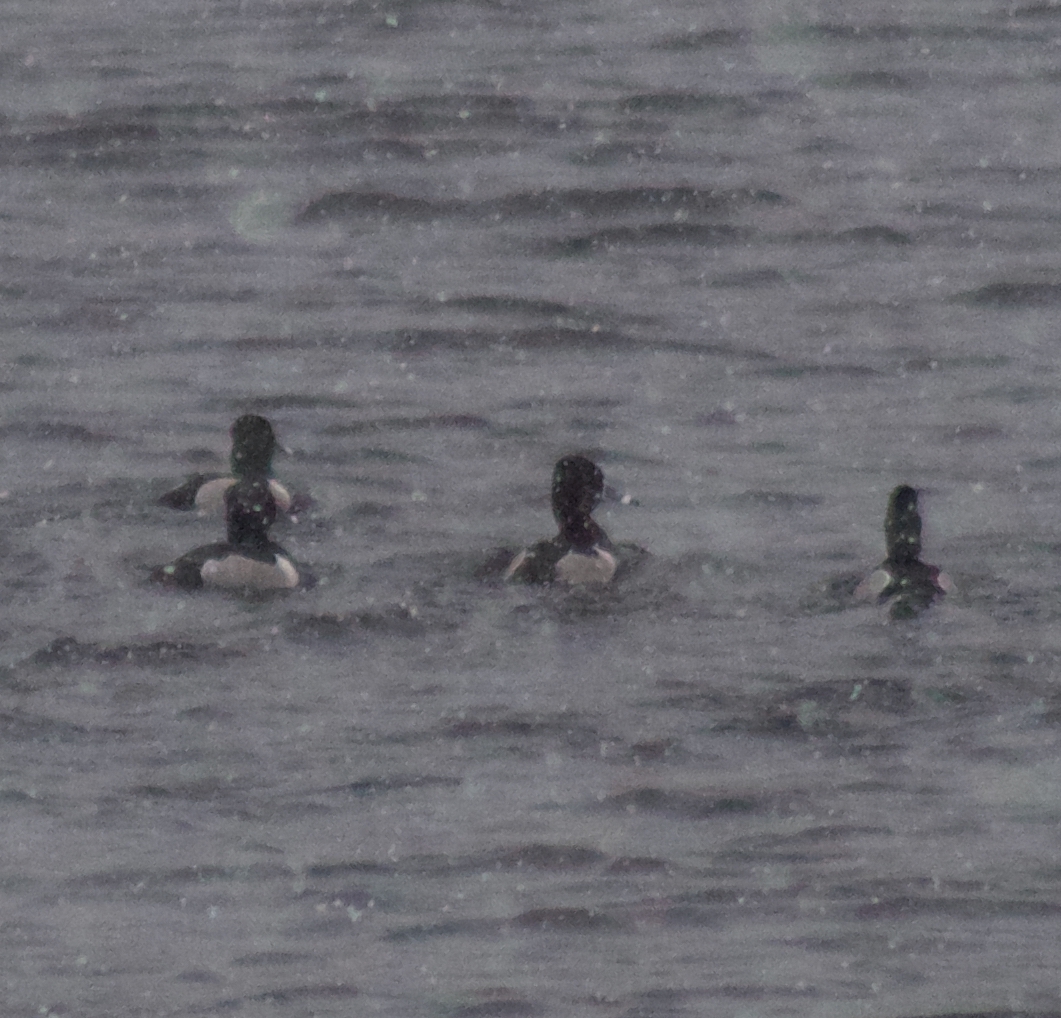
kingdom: Animalia
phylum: Chordata
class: Aves
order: Anseriformes
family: Anatidae
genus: Aythya
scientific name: Aythya collaris
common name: Ring-necked duck
